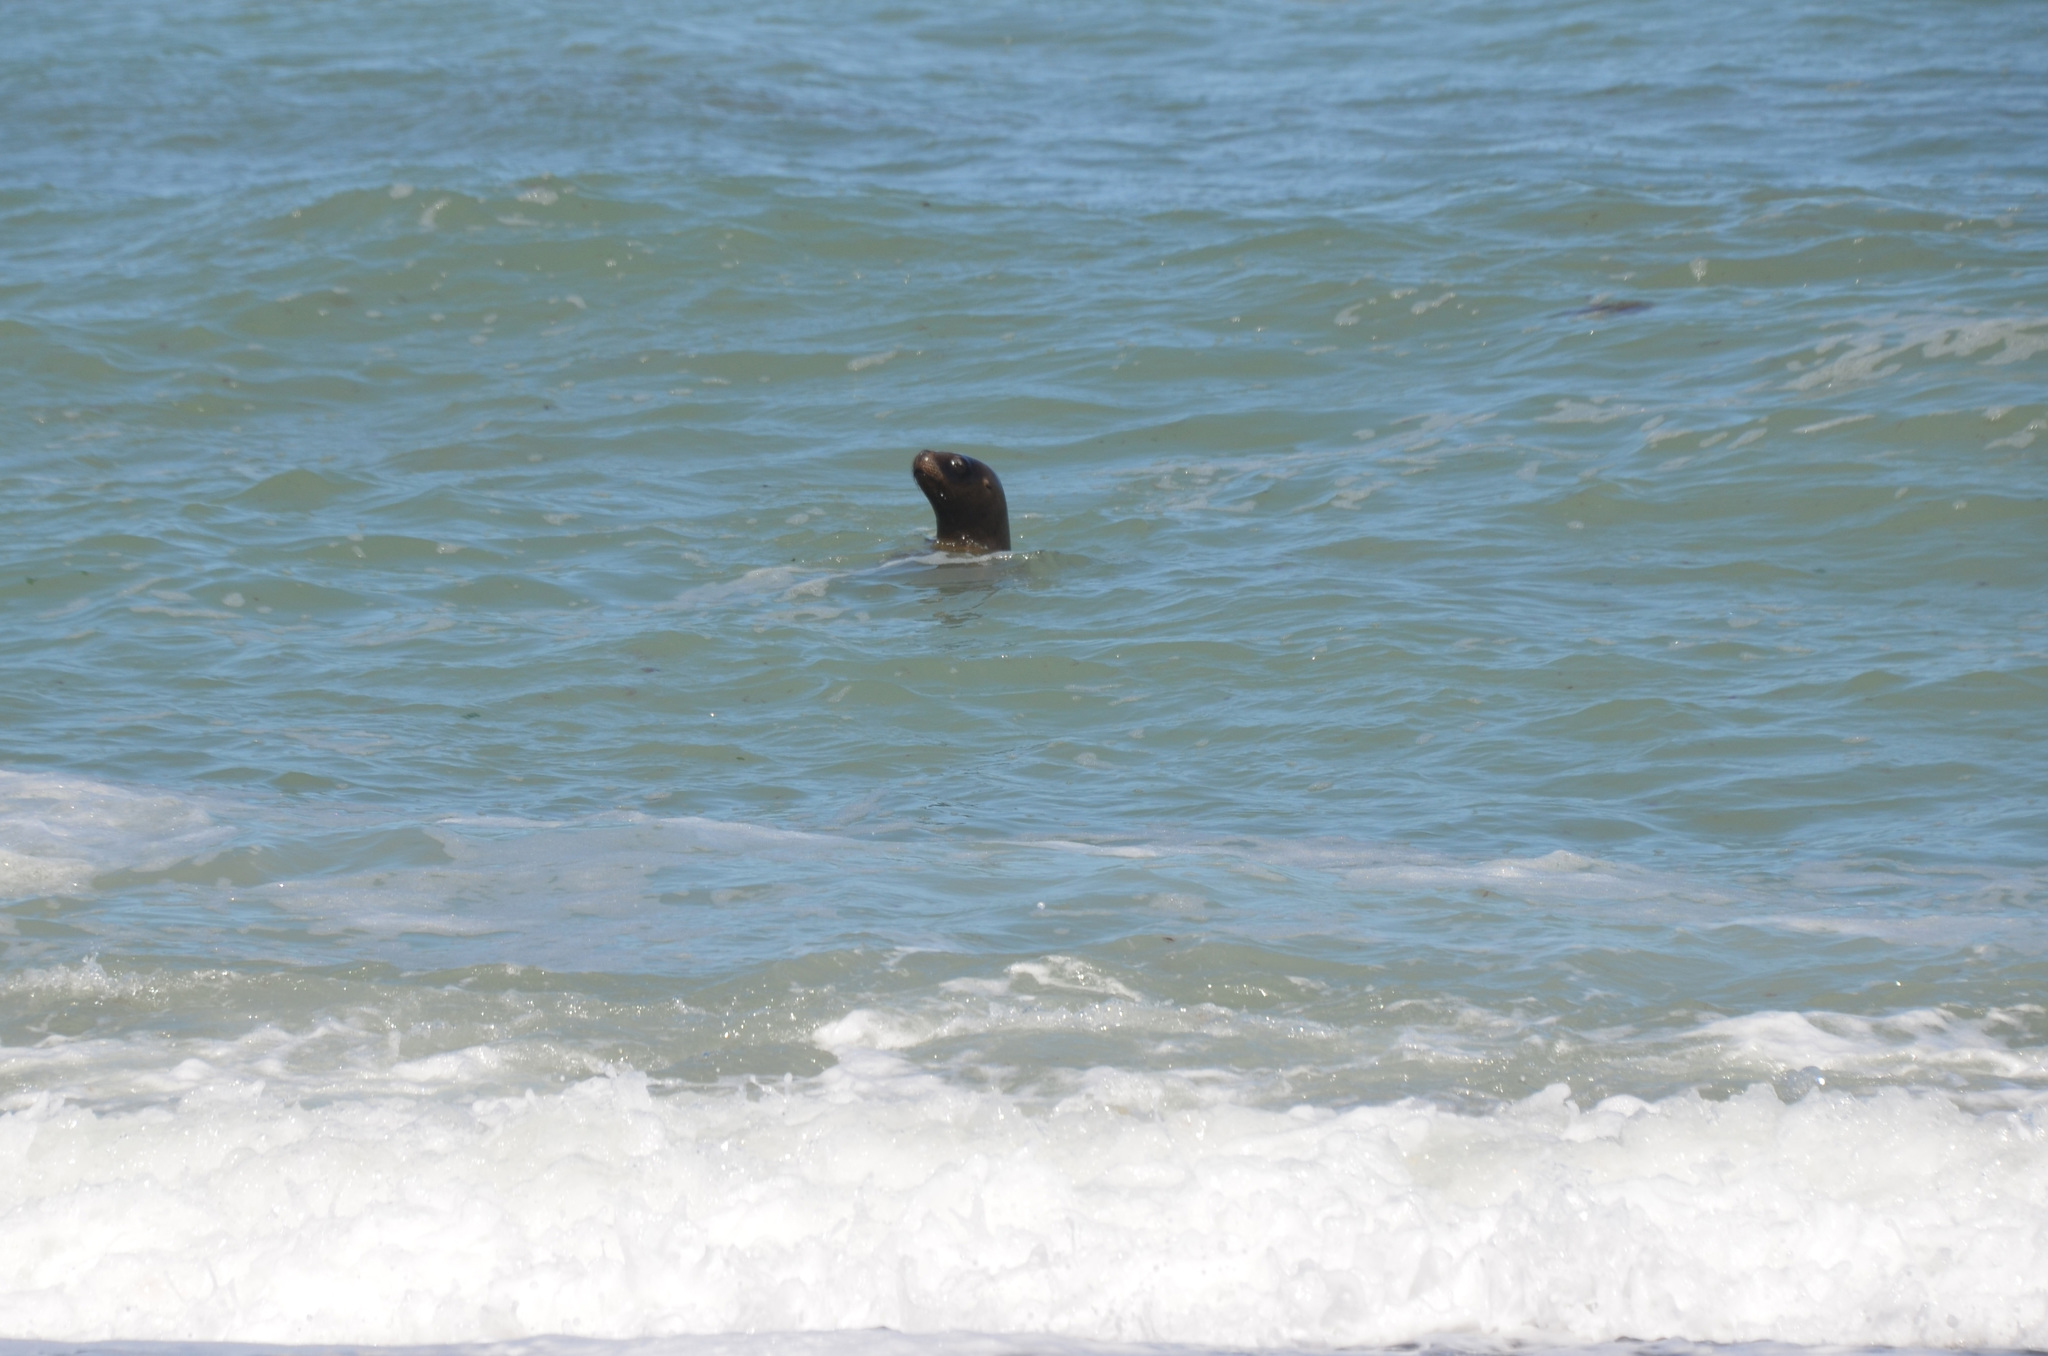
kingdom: Animalia
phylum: Chordata
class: Mammalia
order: Carnivora
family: Otariidae
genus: Otaria
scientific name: Otaria byronia
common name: South american sea lion
